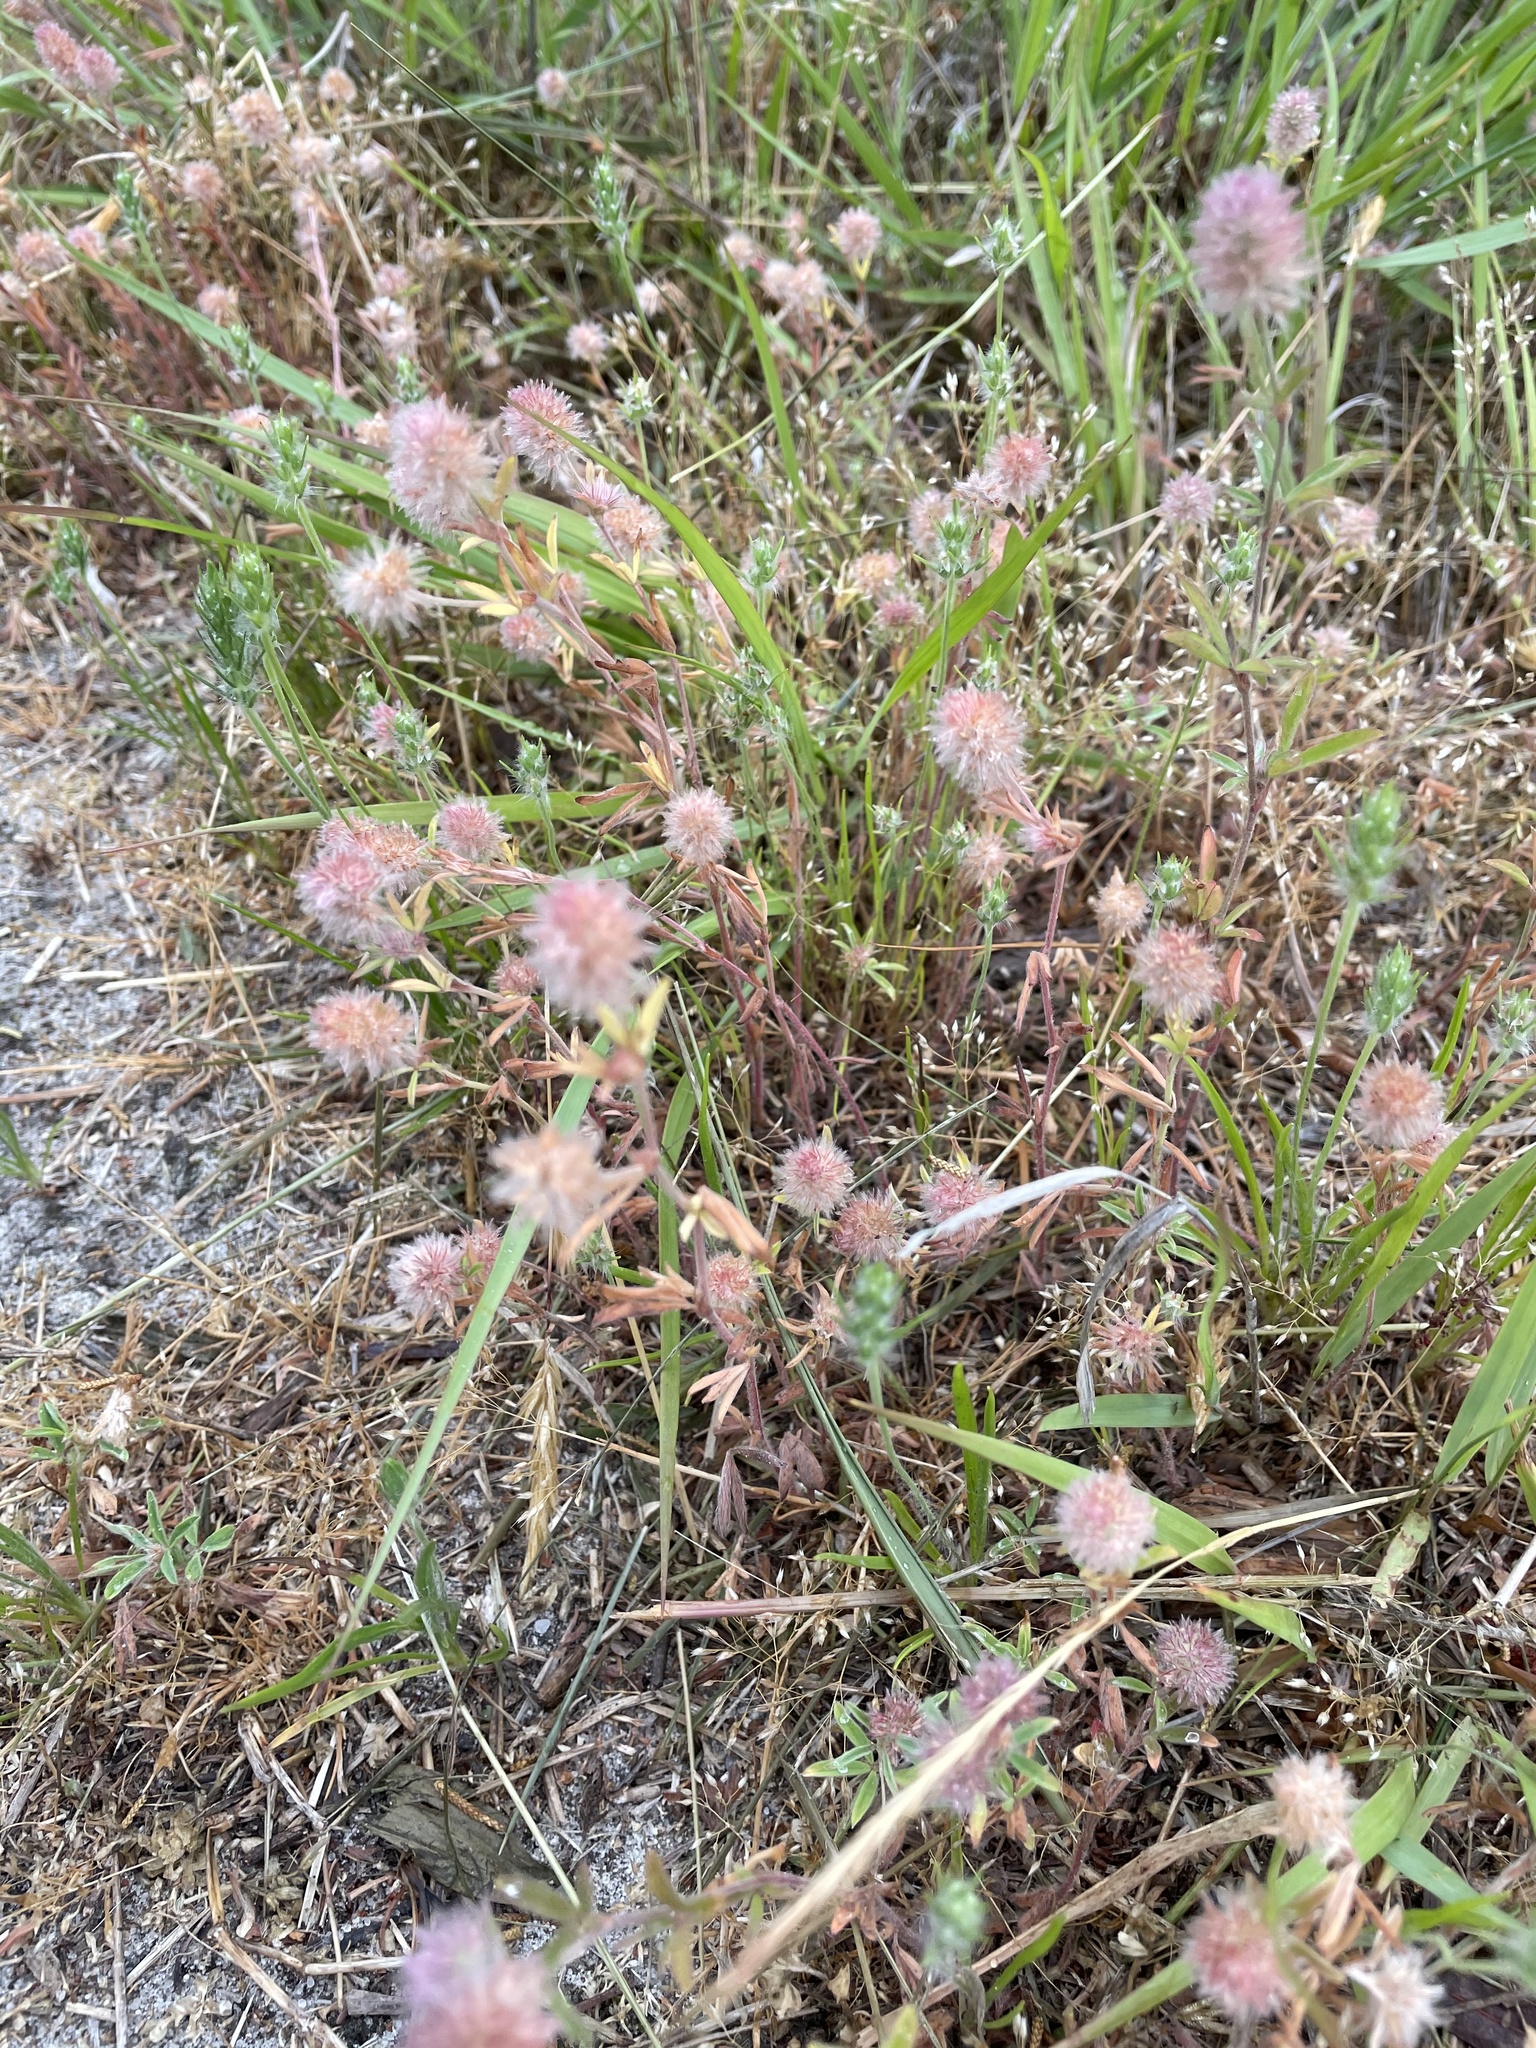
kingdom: Plantae
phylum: Tracheophyta
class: Magnoliopsida
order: Fabales
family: Fabaceae
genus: Trifolium
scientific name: Trifolium arvense
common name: Hare's-foot clover
